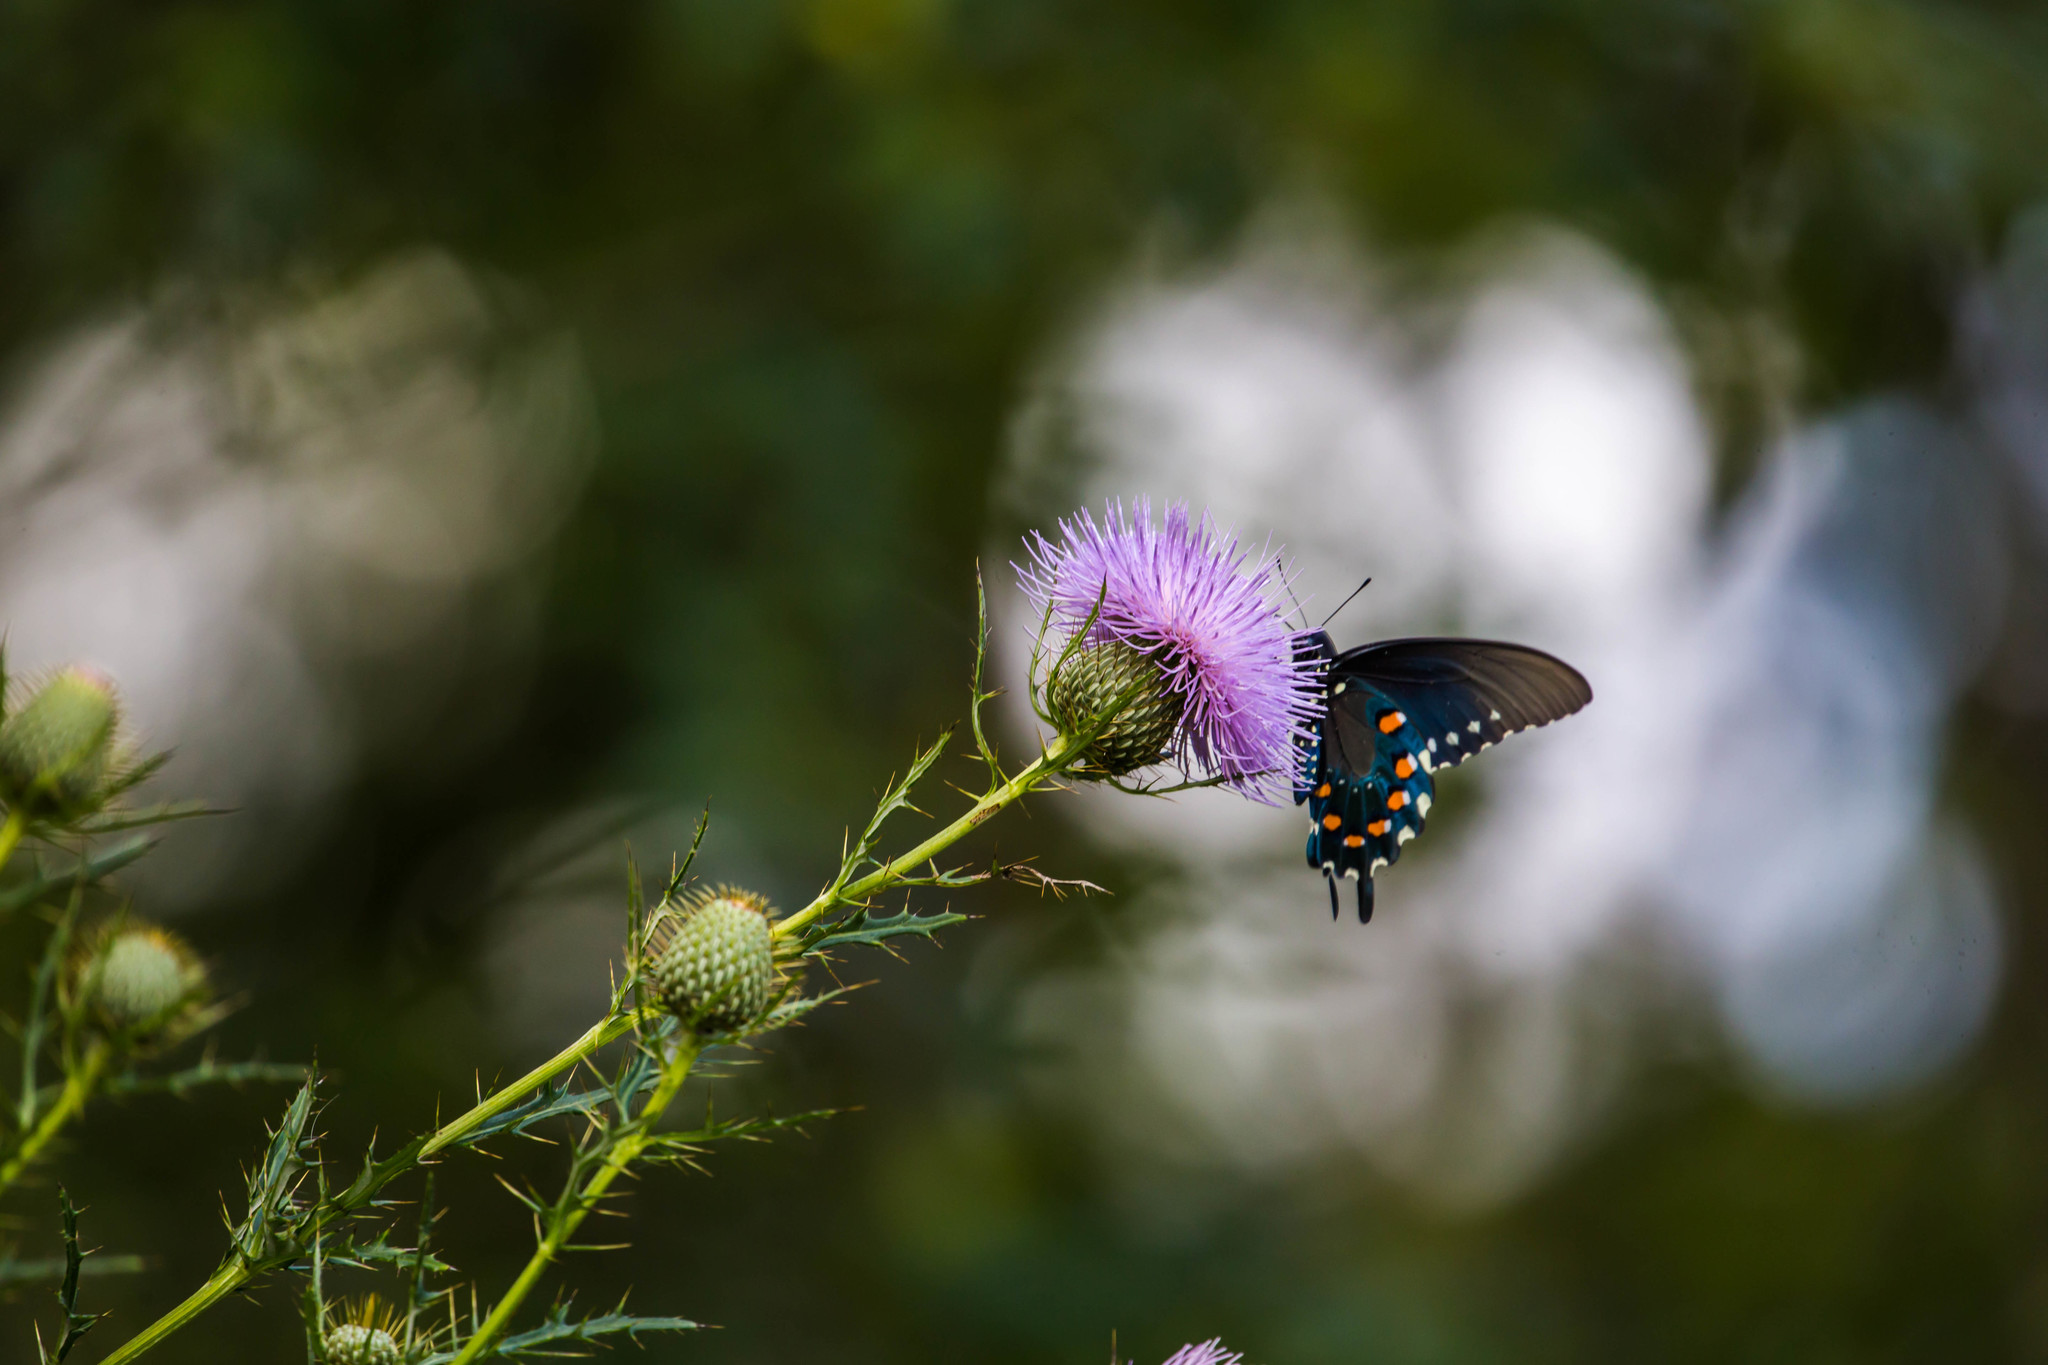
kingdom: Animalia
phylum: Arthropoda
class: Insecta
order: Lepidoptera
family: Papilionidae
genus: Battus
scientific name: Battus philenor
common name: Pipevine swallowtail
